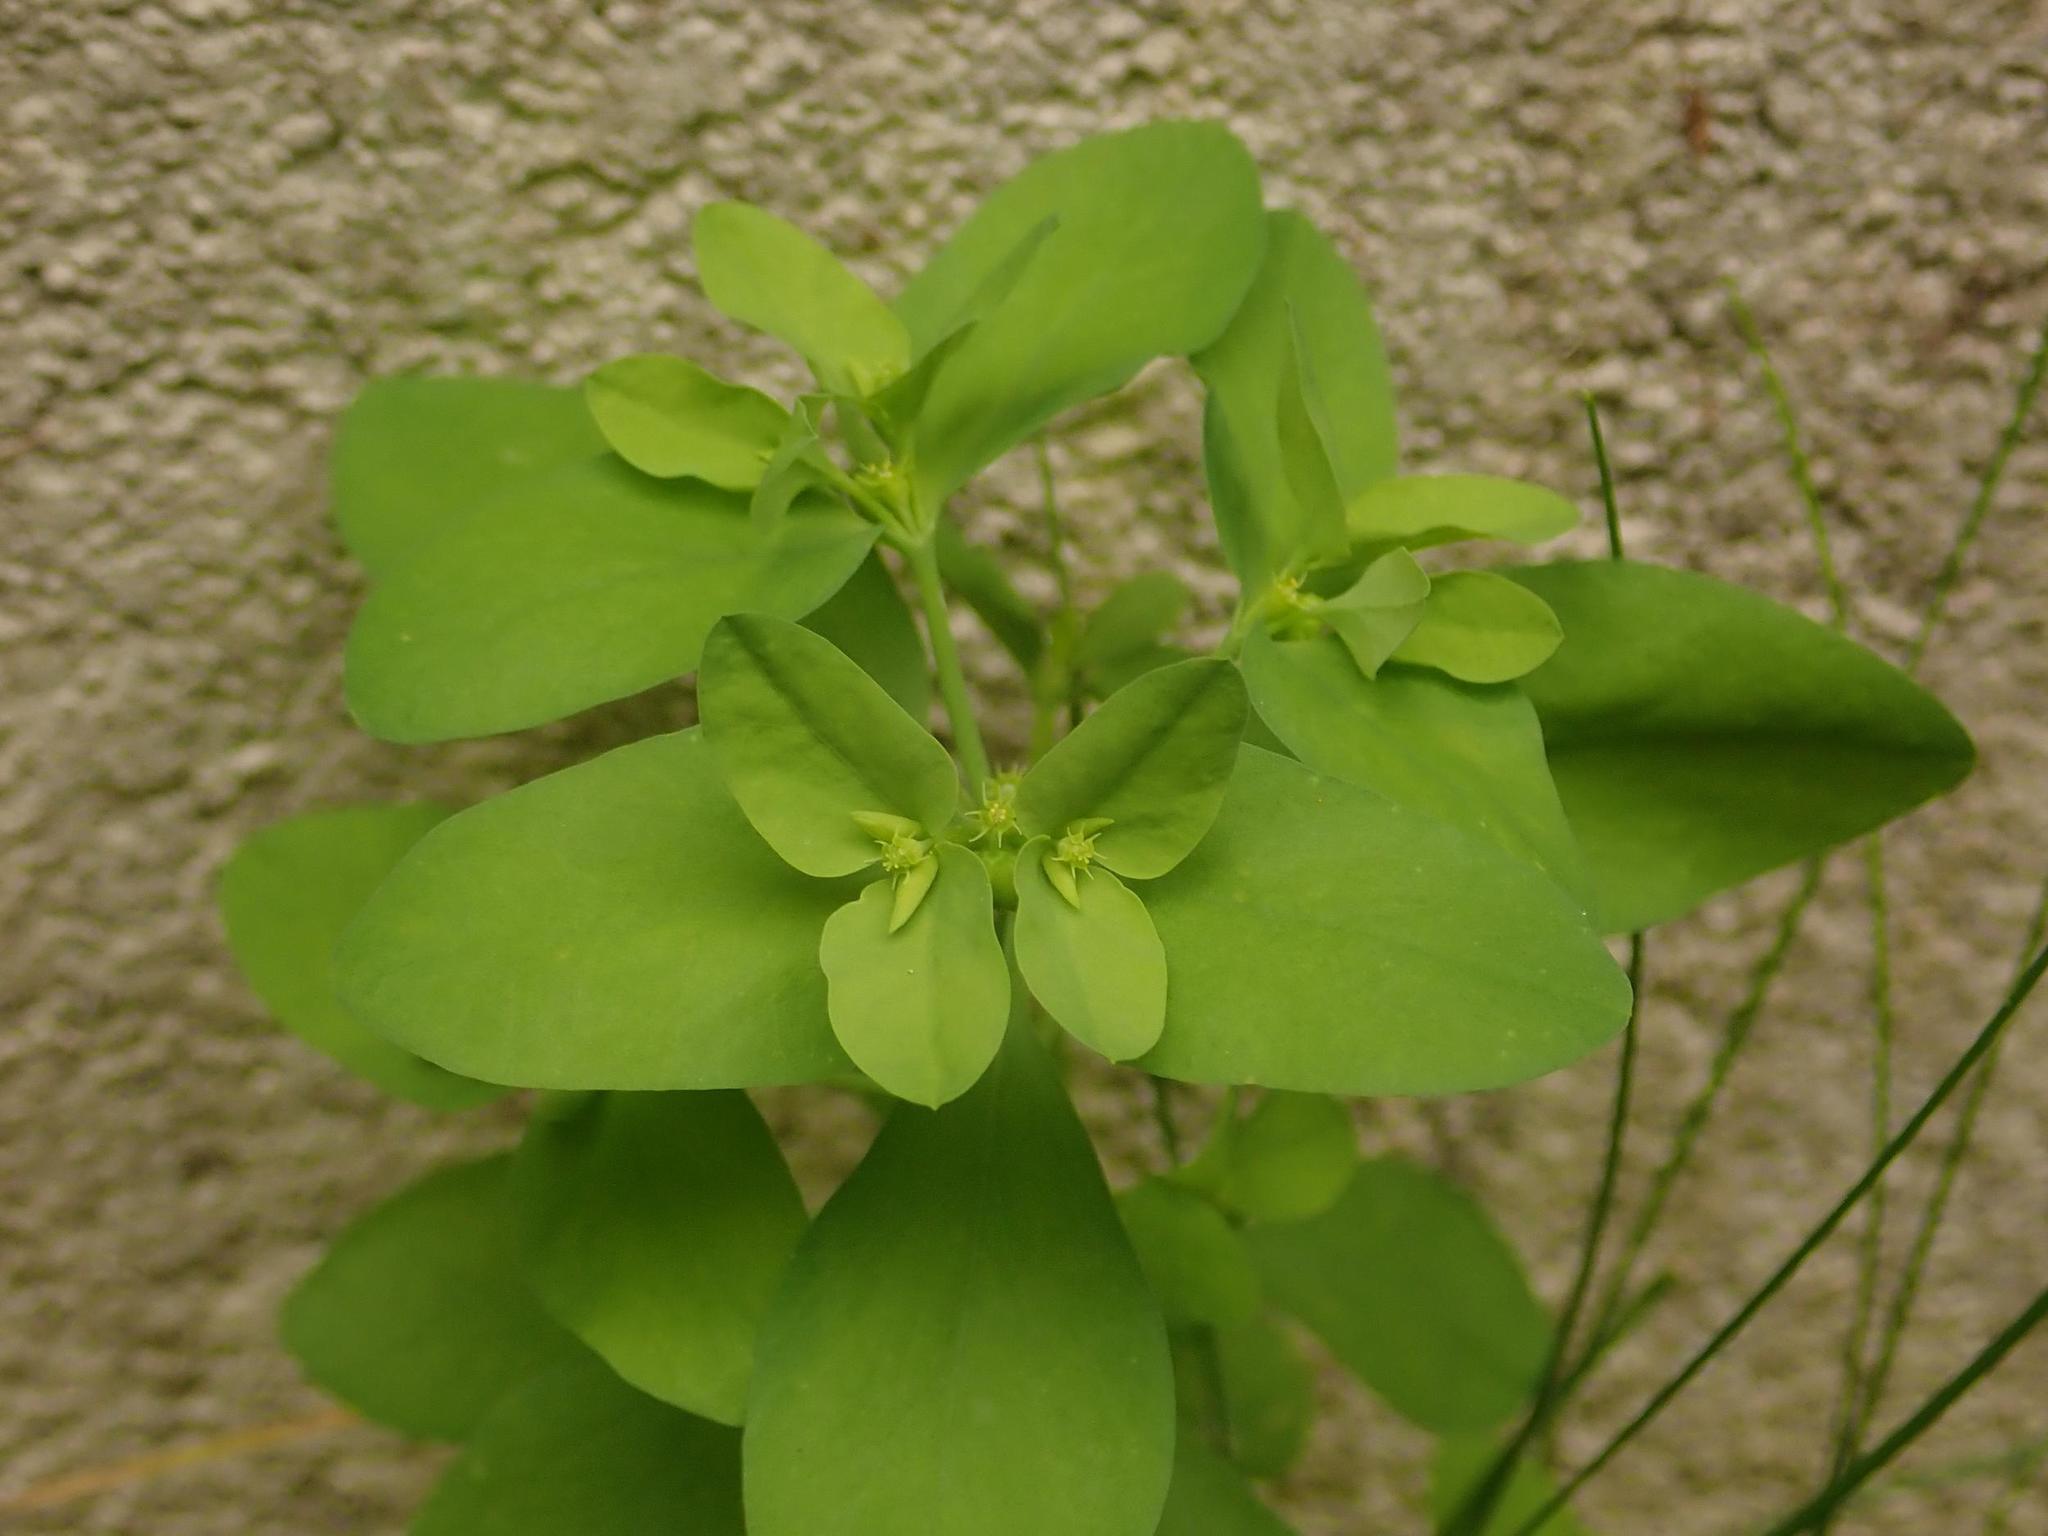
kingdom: Plantae
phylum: Tracheophyta
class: Magnoliopsida
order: Malpighiales
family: Euphorbiaceae
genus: Euphorbia
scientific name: Euphorbia peplus
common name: Petty spurge
